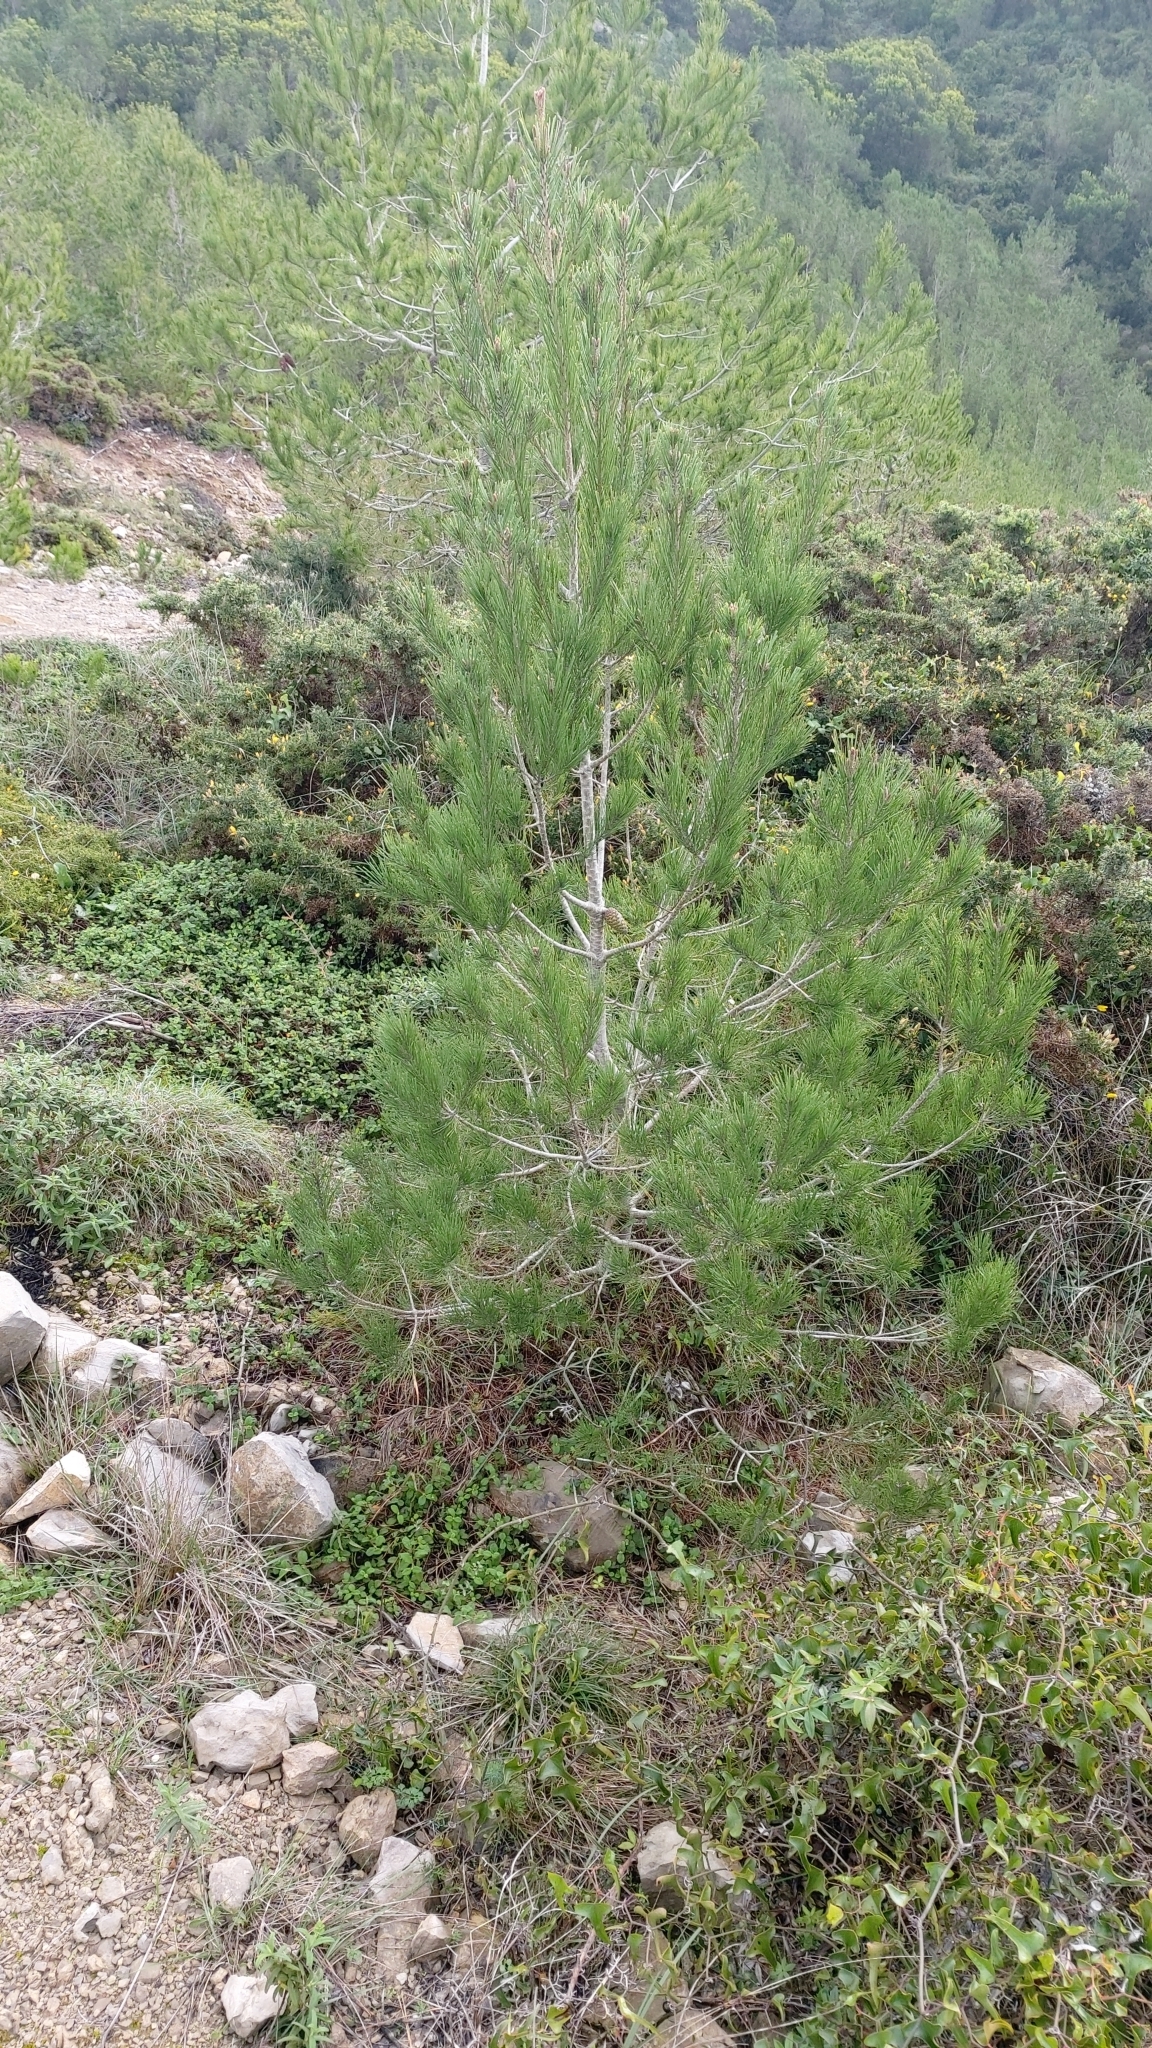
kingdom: Plantae
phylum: Tracheophyta
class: Pinopsida
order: Pinales
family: Pinaceae
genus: Pinus
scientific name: Pinus halepensis
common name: Aleppo pine
